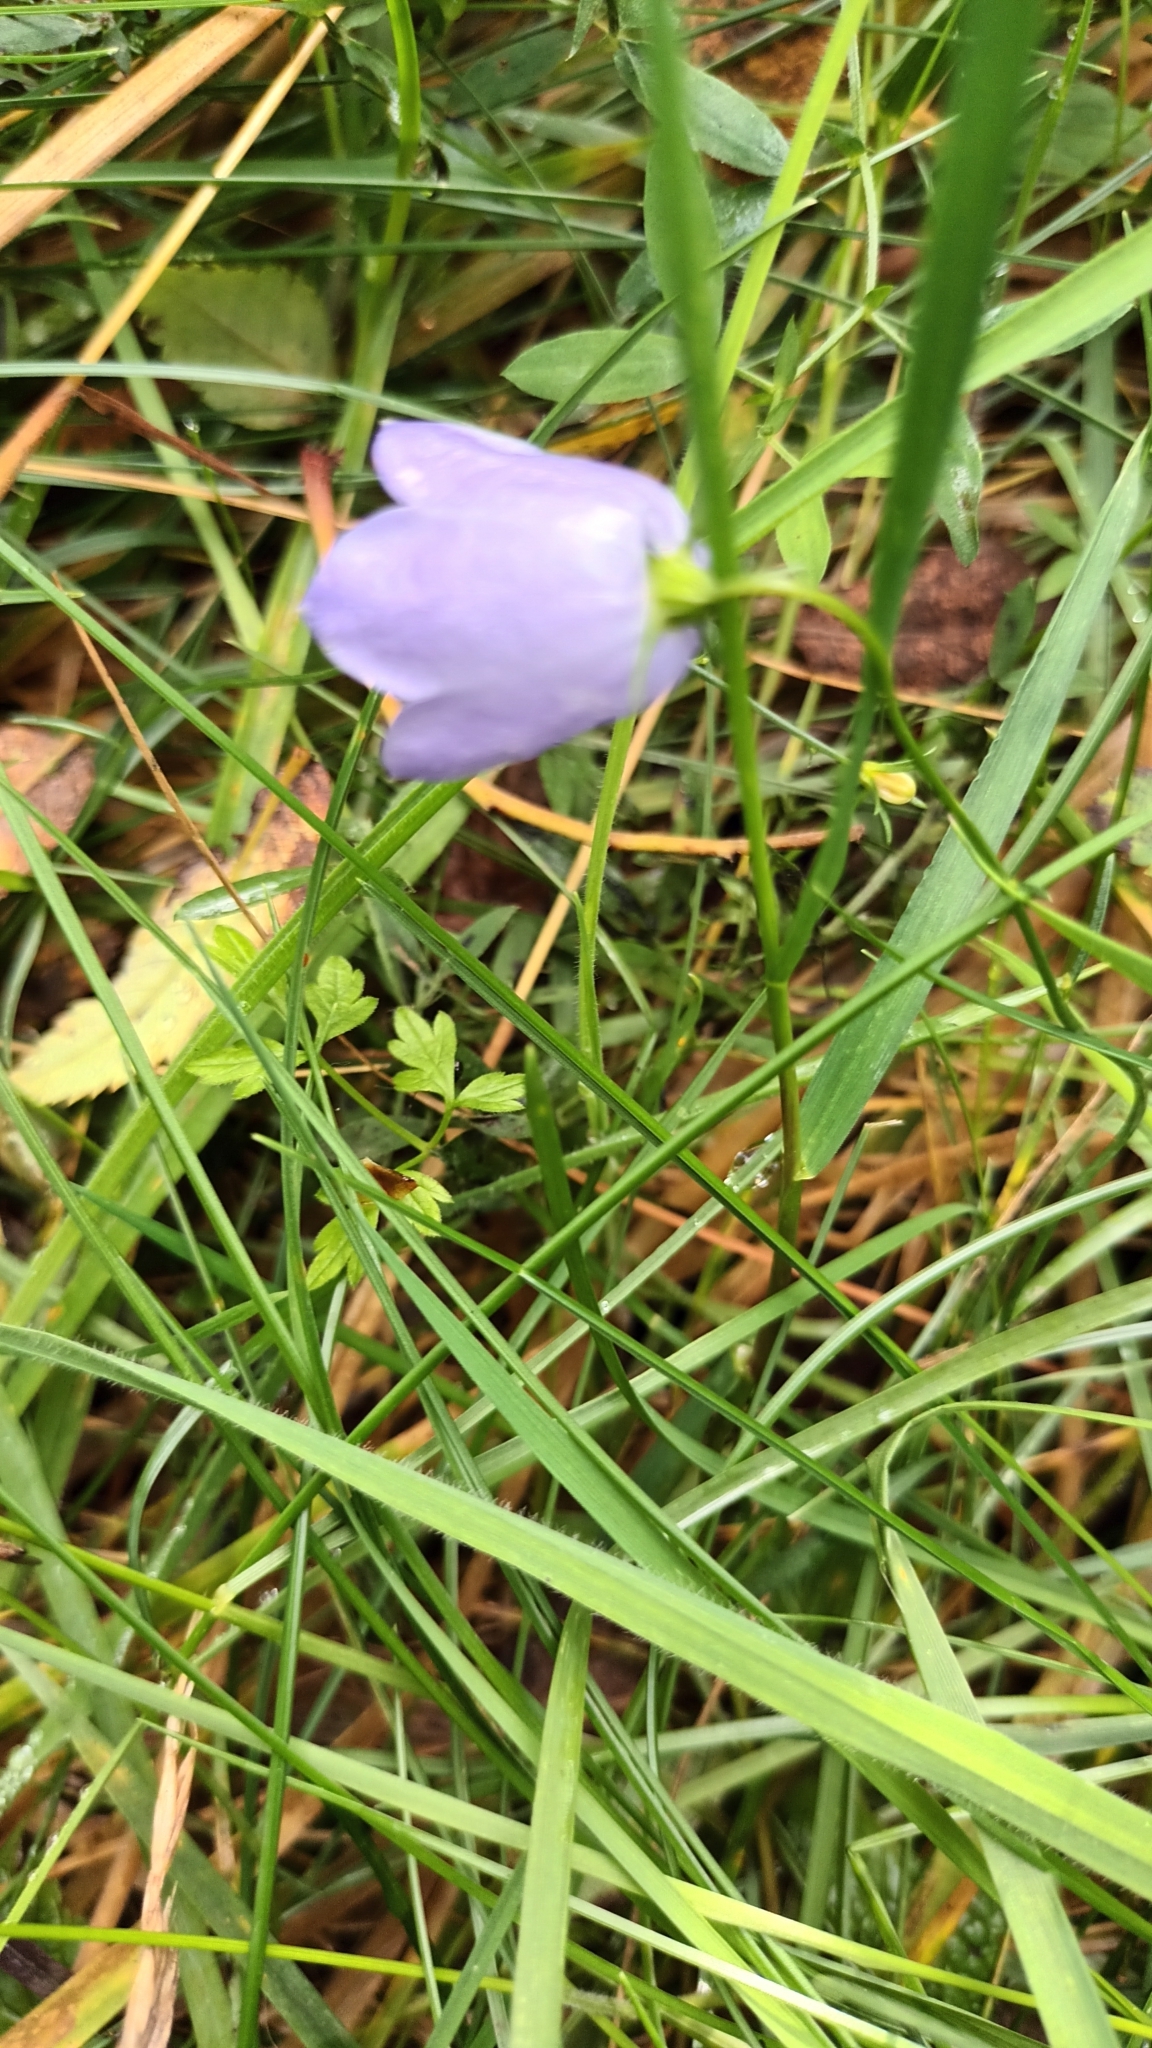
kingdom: Plantae
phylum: Tracheophyta
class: Magnoliopsida
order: Asterales
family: Campanulaceae
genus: Campanula
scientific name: Campanula rotundifolia
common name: Harebell
